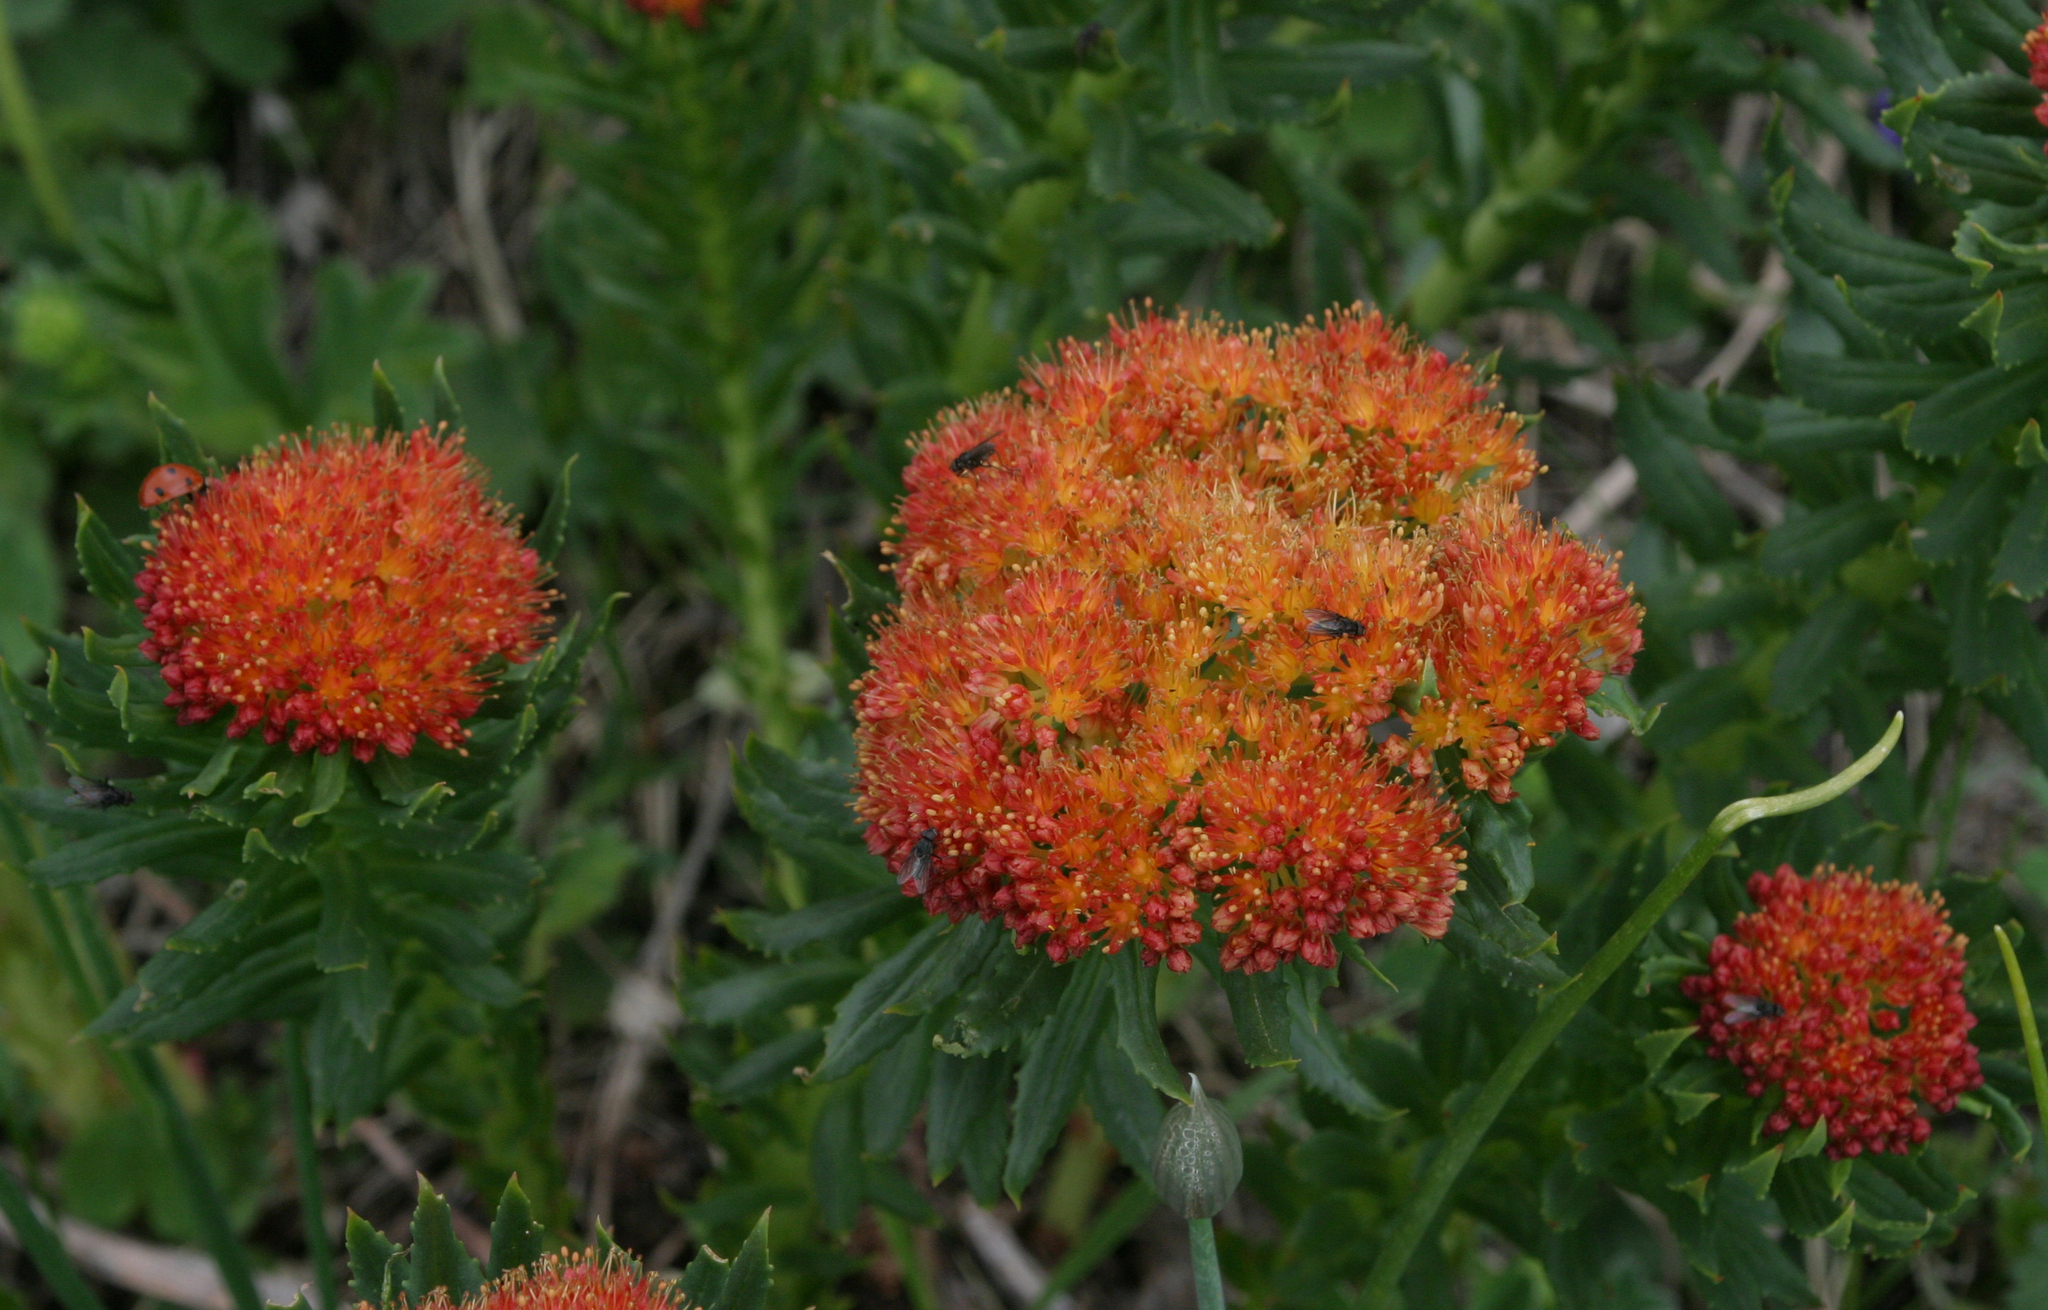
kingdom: Plantae
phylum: Tracheophyta
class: Magnoliopsida
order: Saxifragales
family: Crassulaceae
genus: Rhodiola
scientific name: Rhodiola kirilowii
